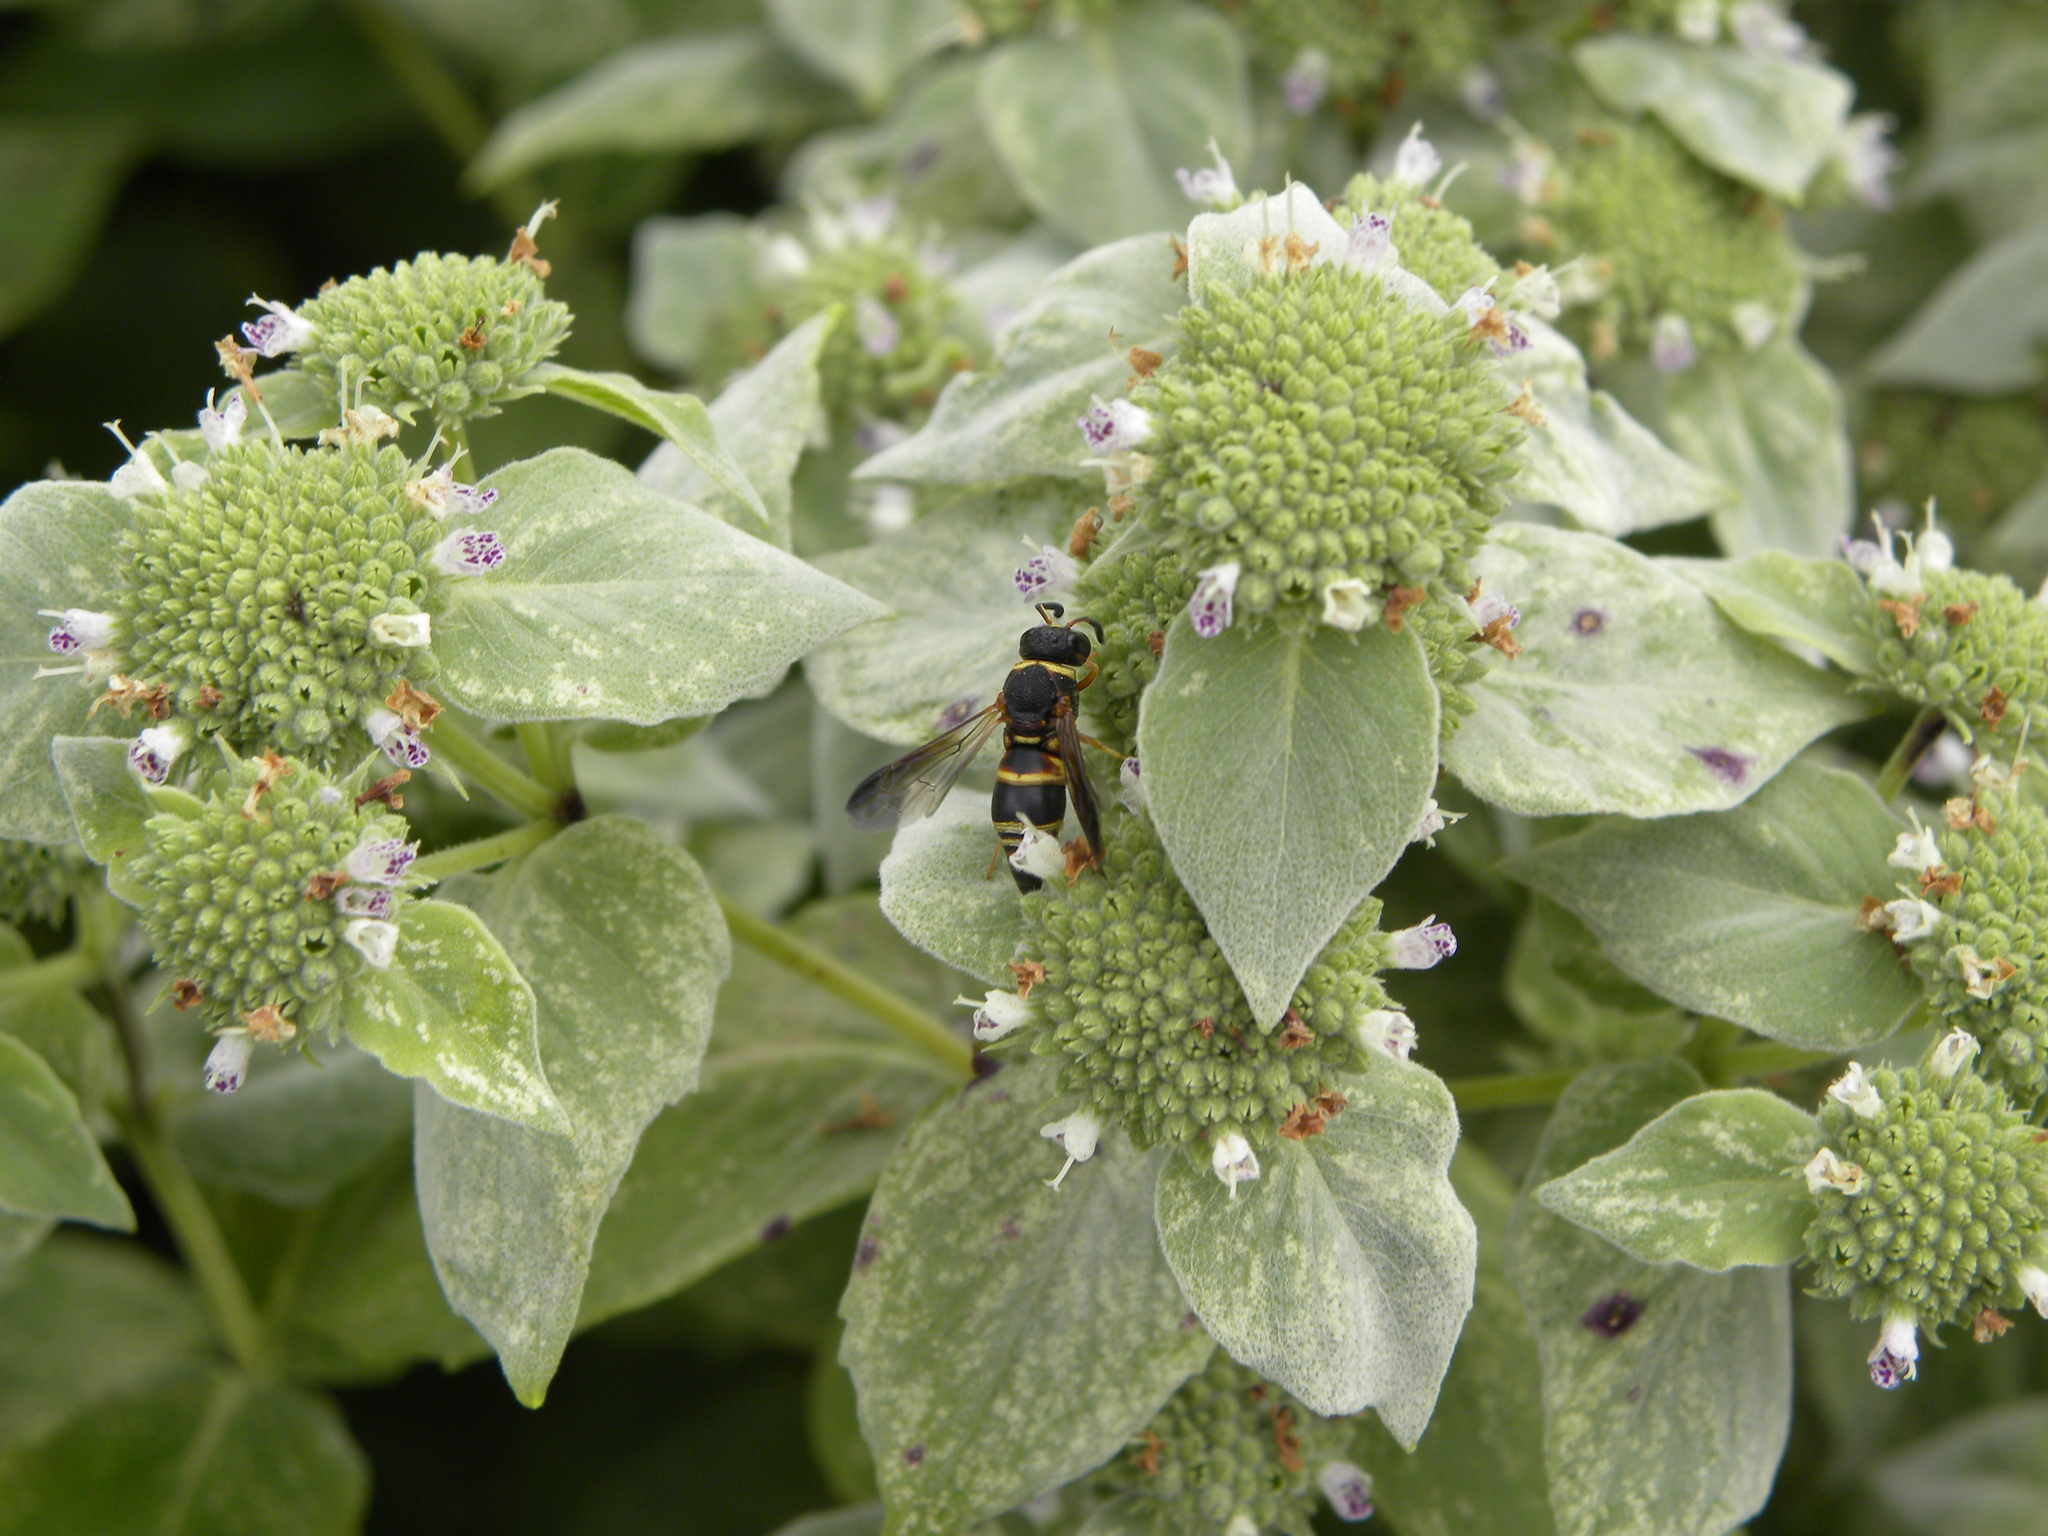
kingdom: Animalia
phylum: Arthropoda
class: Insecta
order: Hymenoptera
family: Eumenidae
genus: Euodynerus
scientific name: Euodynerus hidalgo
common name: Wasp
